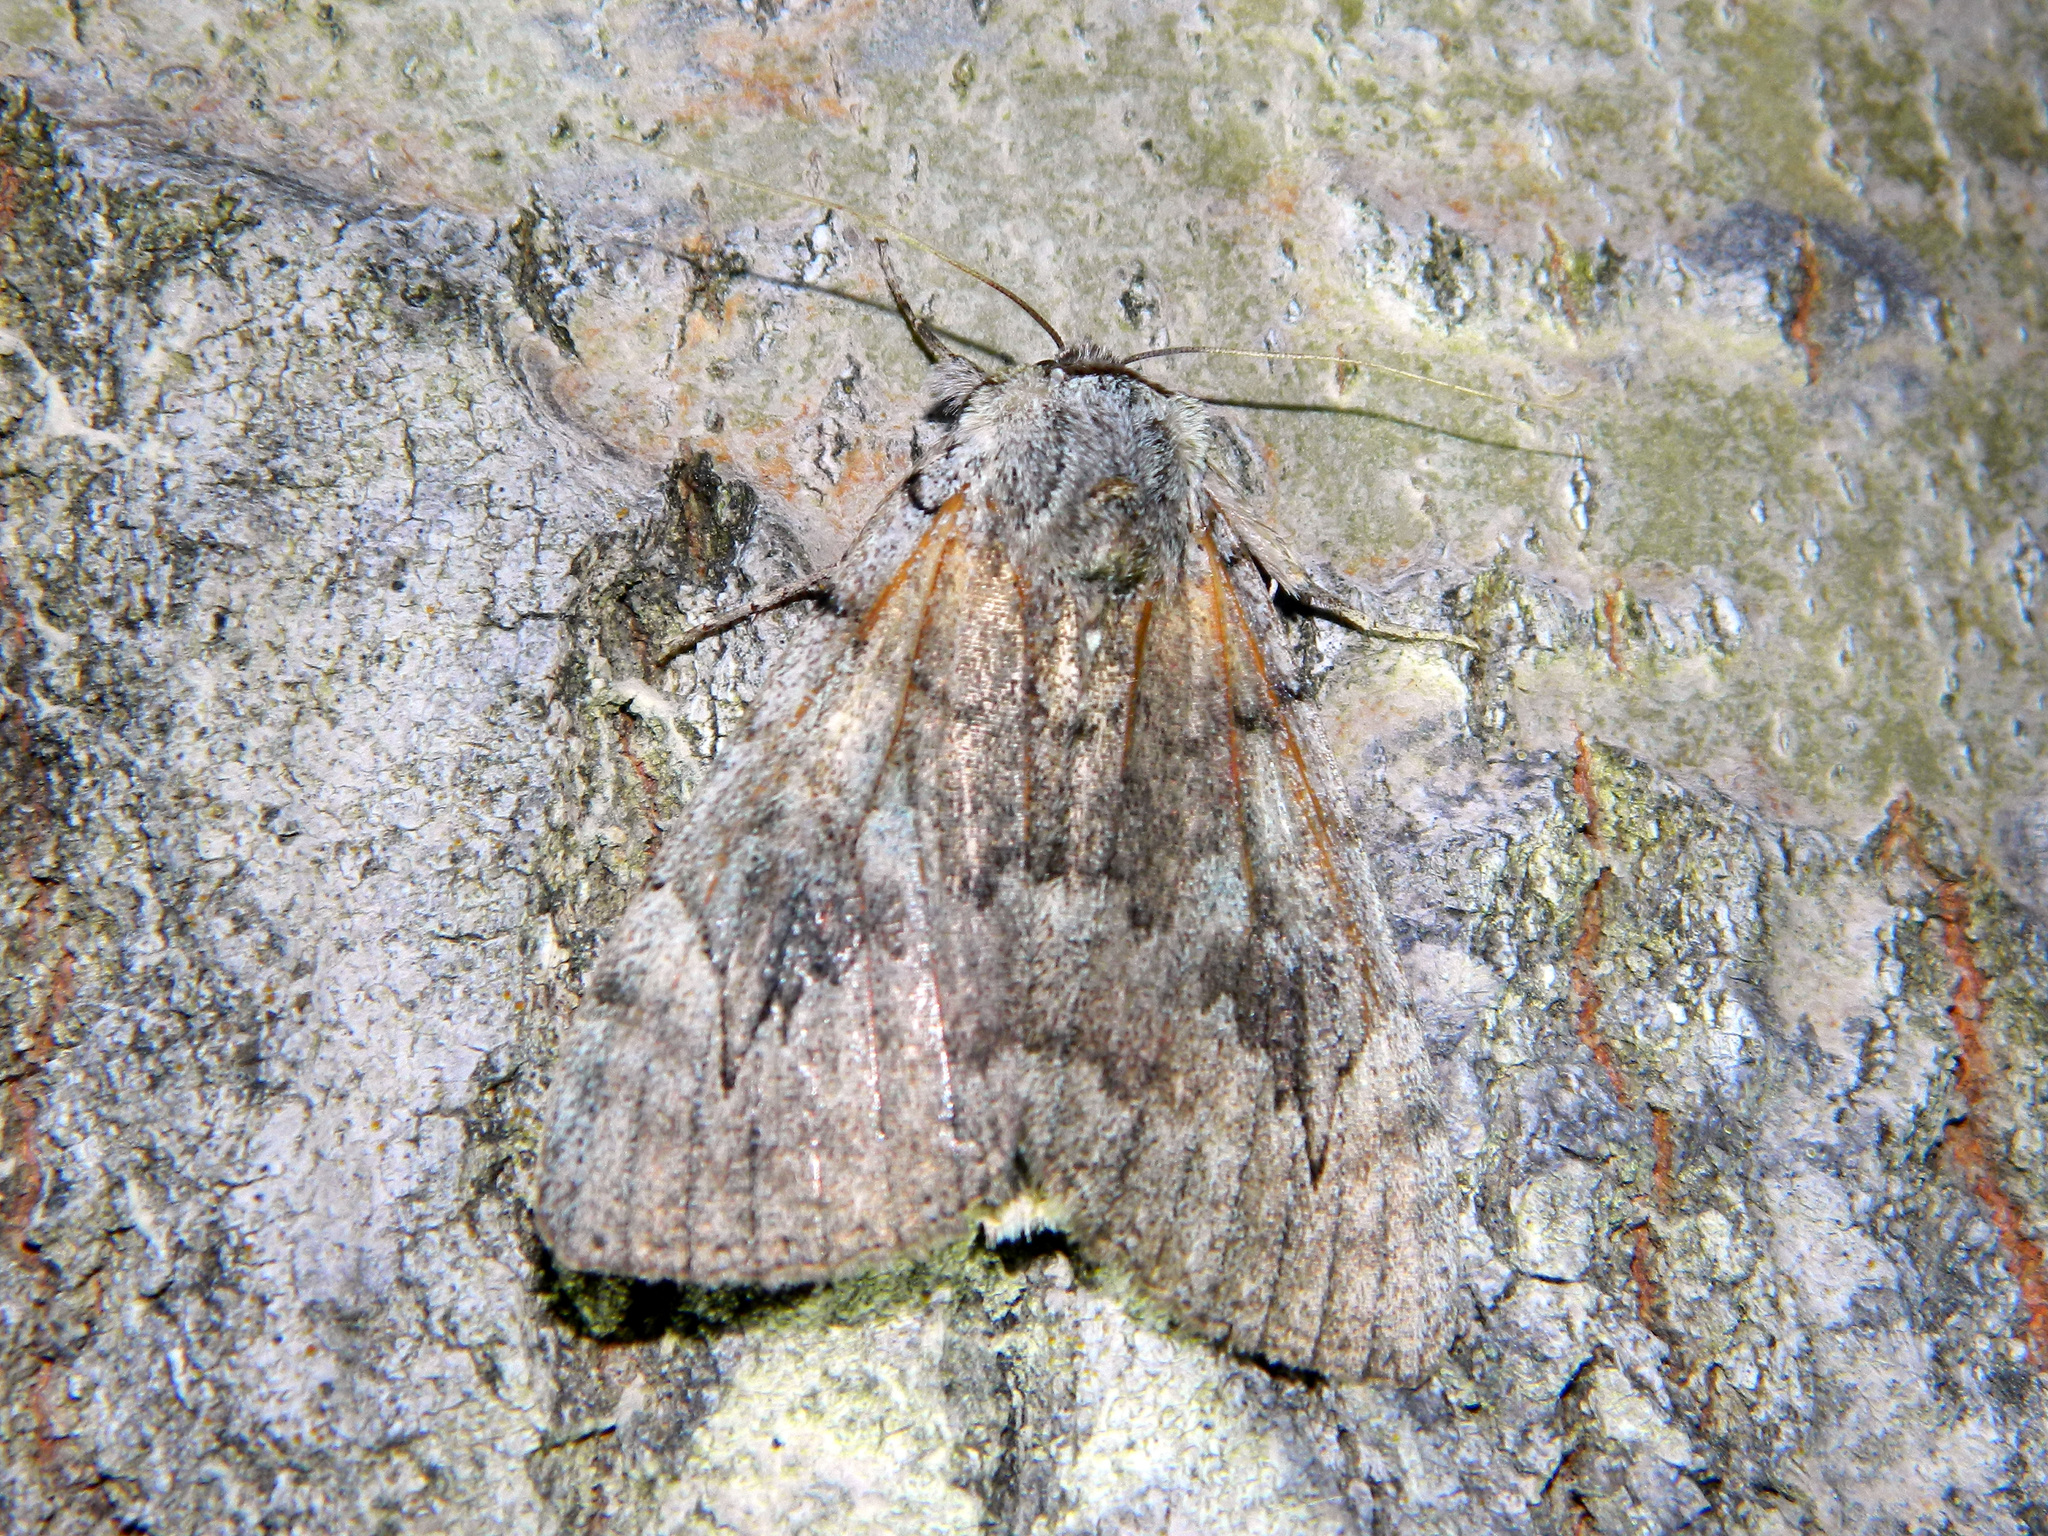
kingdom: Animalia
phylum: Arthropoda
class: Insecta
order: Lepidoptera
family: Erebidae
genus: Catocala
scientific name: Catocala concumbens
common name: Pink underwing
